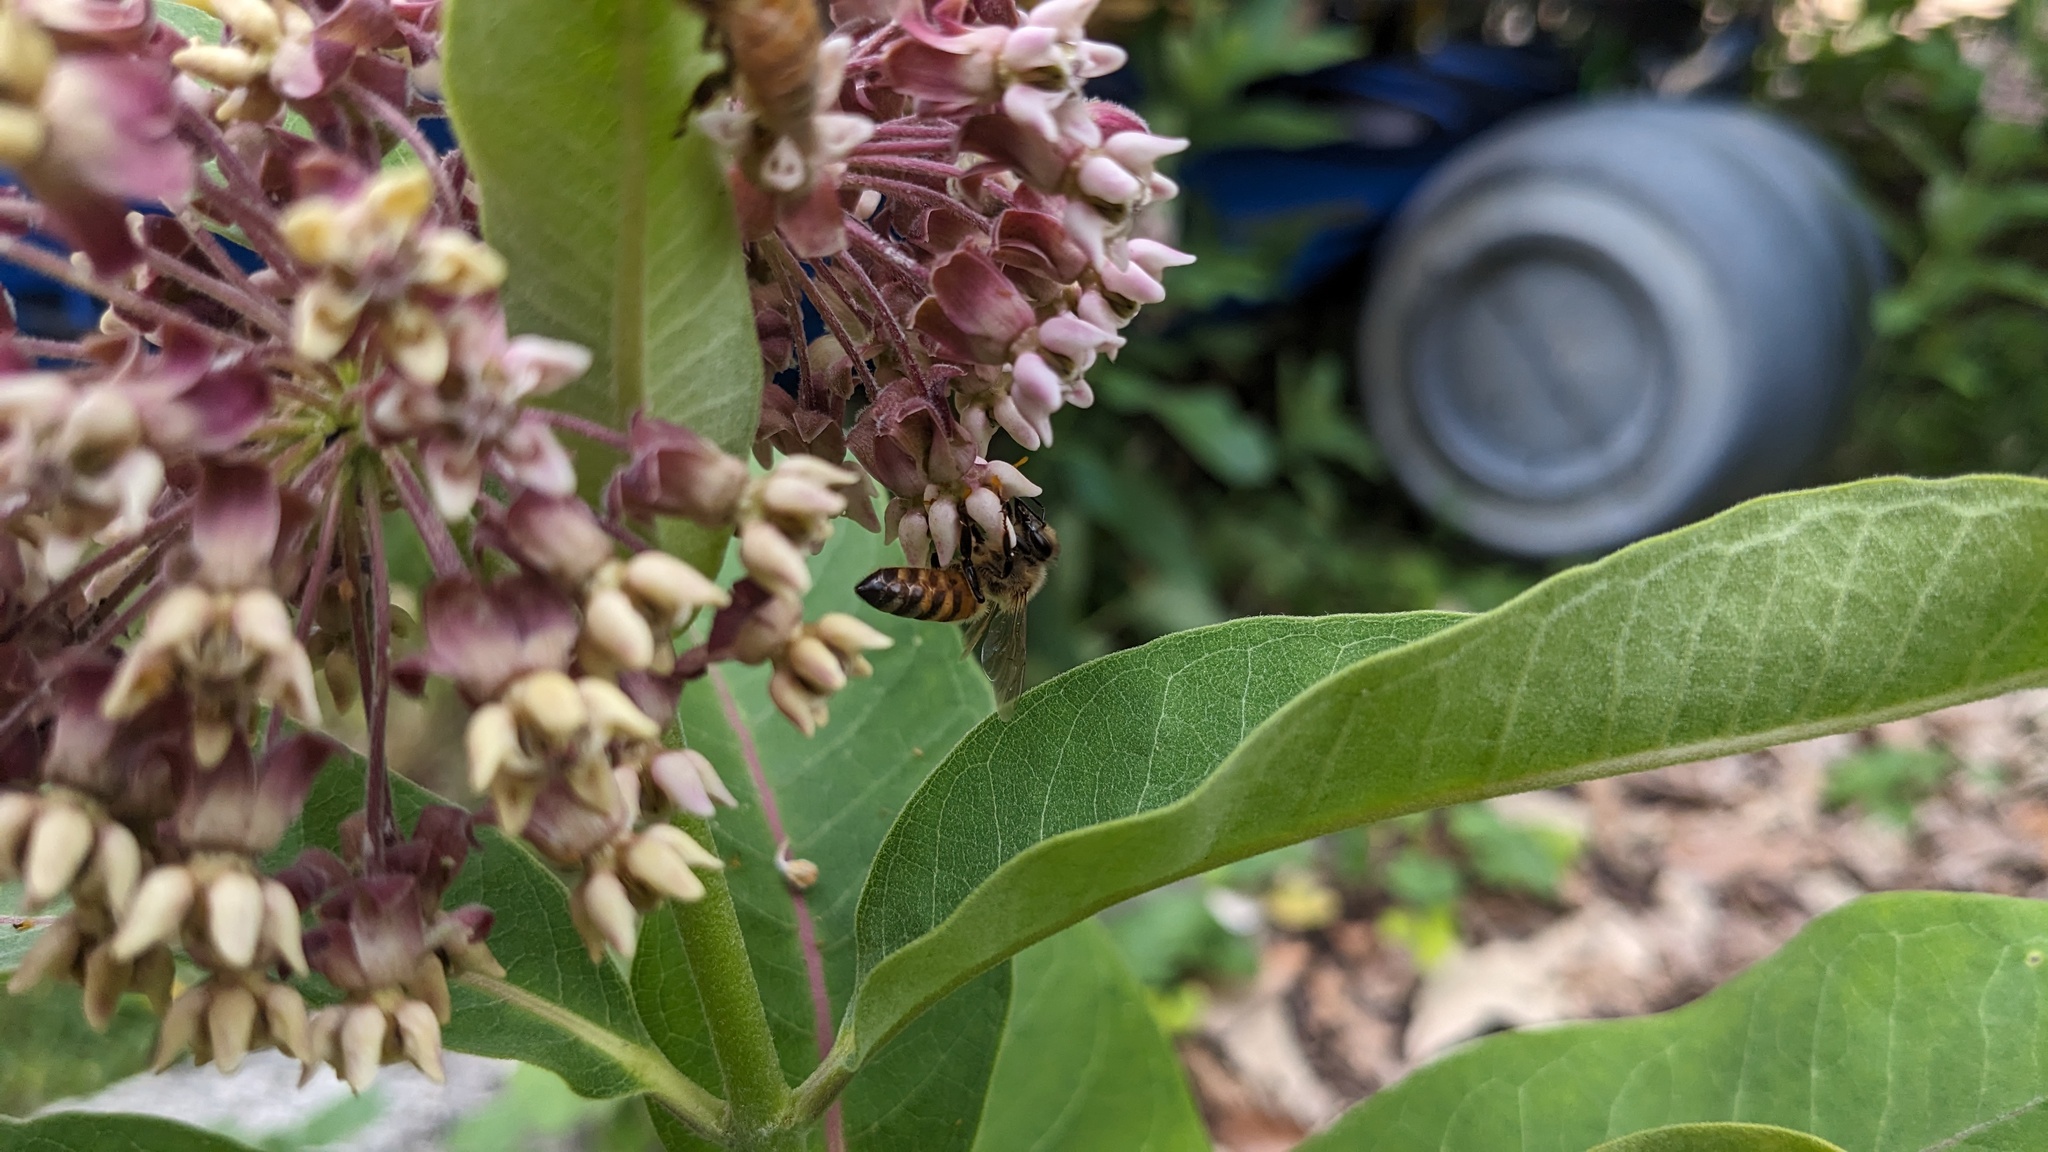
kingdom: Animalia
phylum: Arthropoda
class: Insecta
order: Hymenoptera
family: Apidae
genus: Apis
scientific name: Apis mellifera
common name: Honey bee
